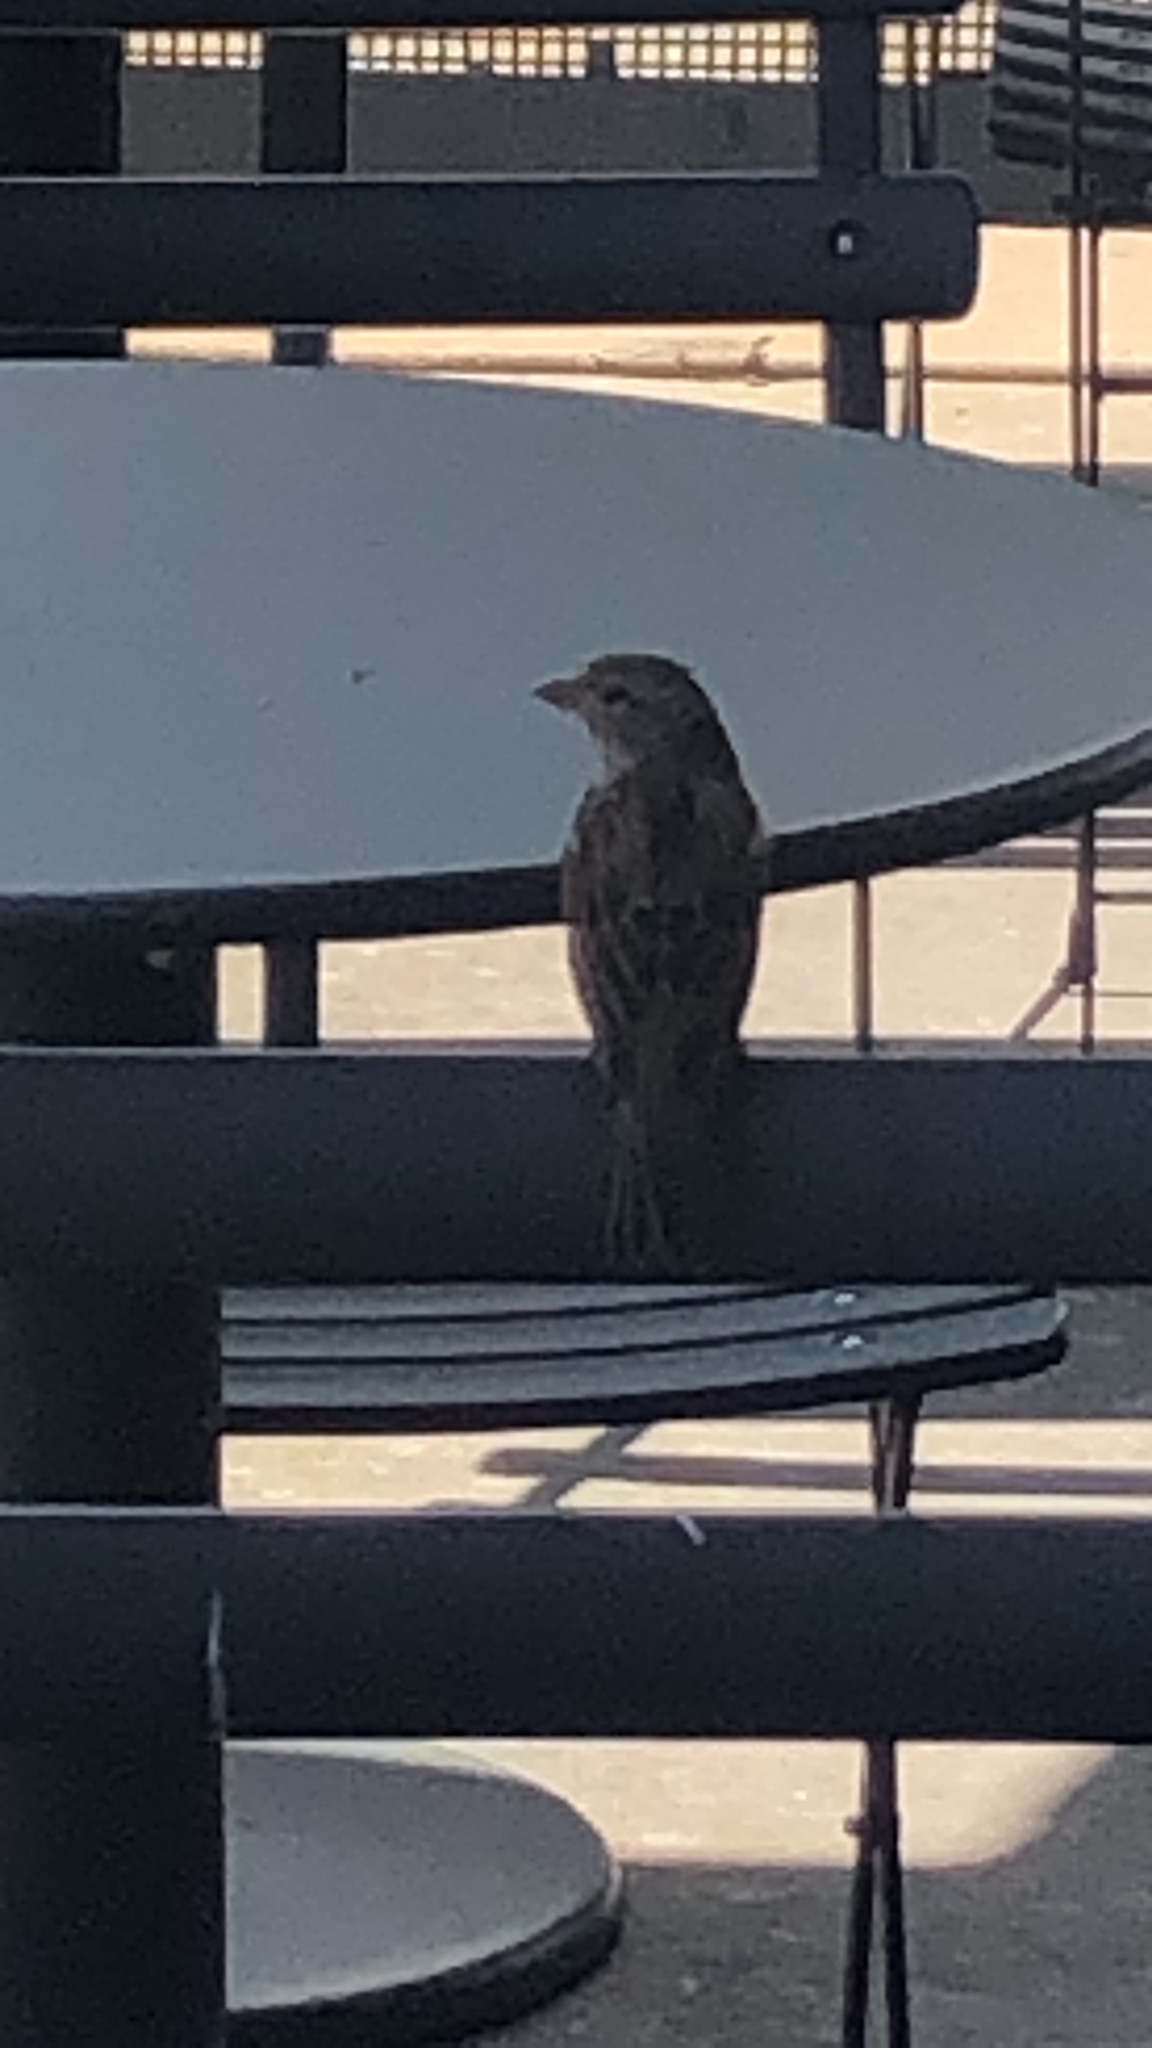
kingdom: Animalia
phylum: Chordata
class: Aves
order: Passeriformes
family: Passeridae
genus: Passer
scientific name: Passer domesticus
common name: House sparrow
